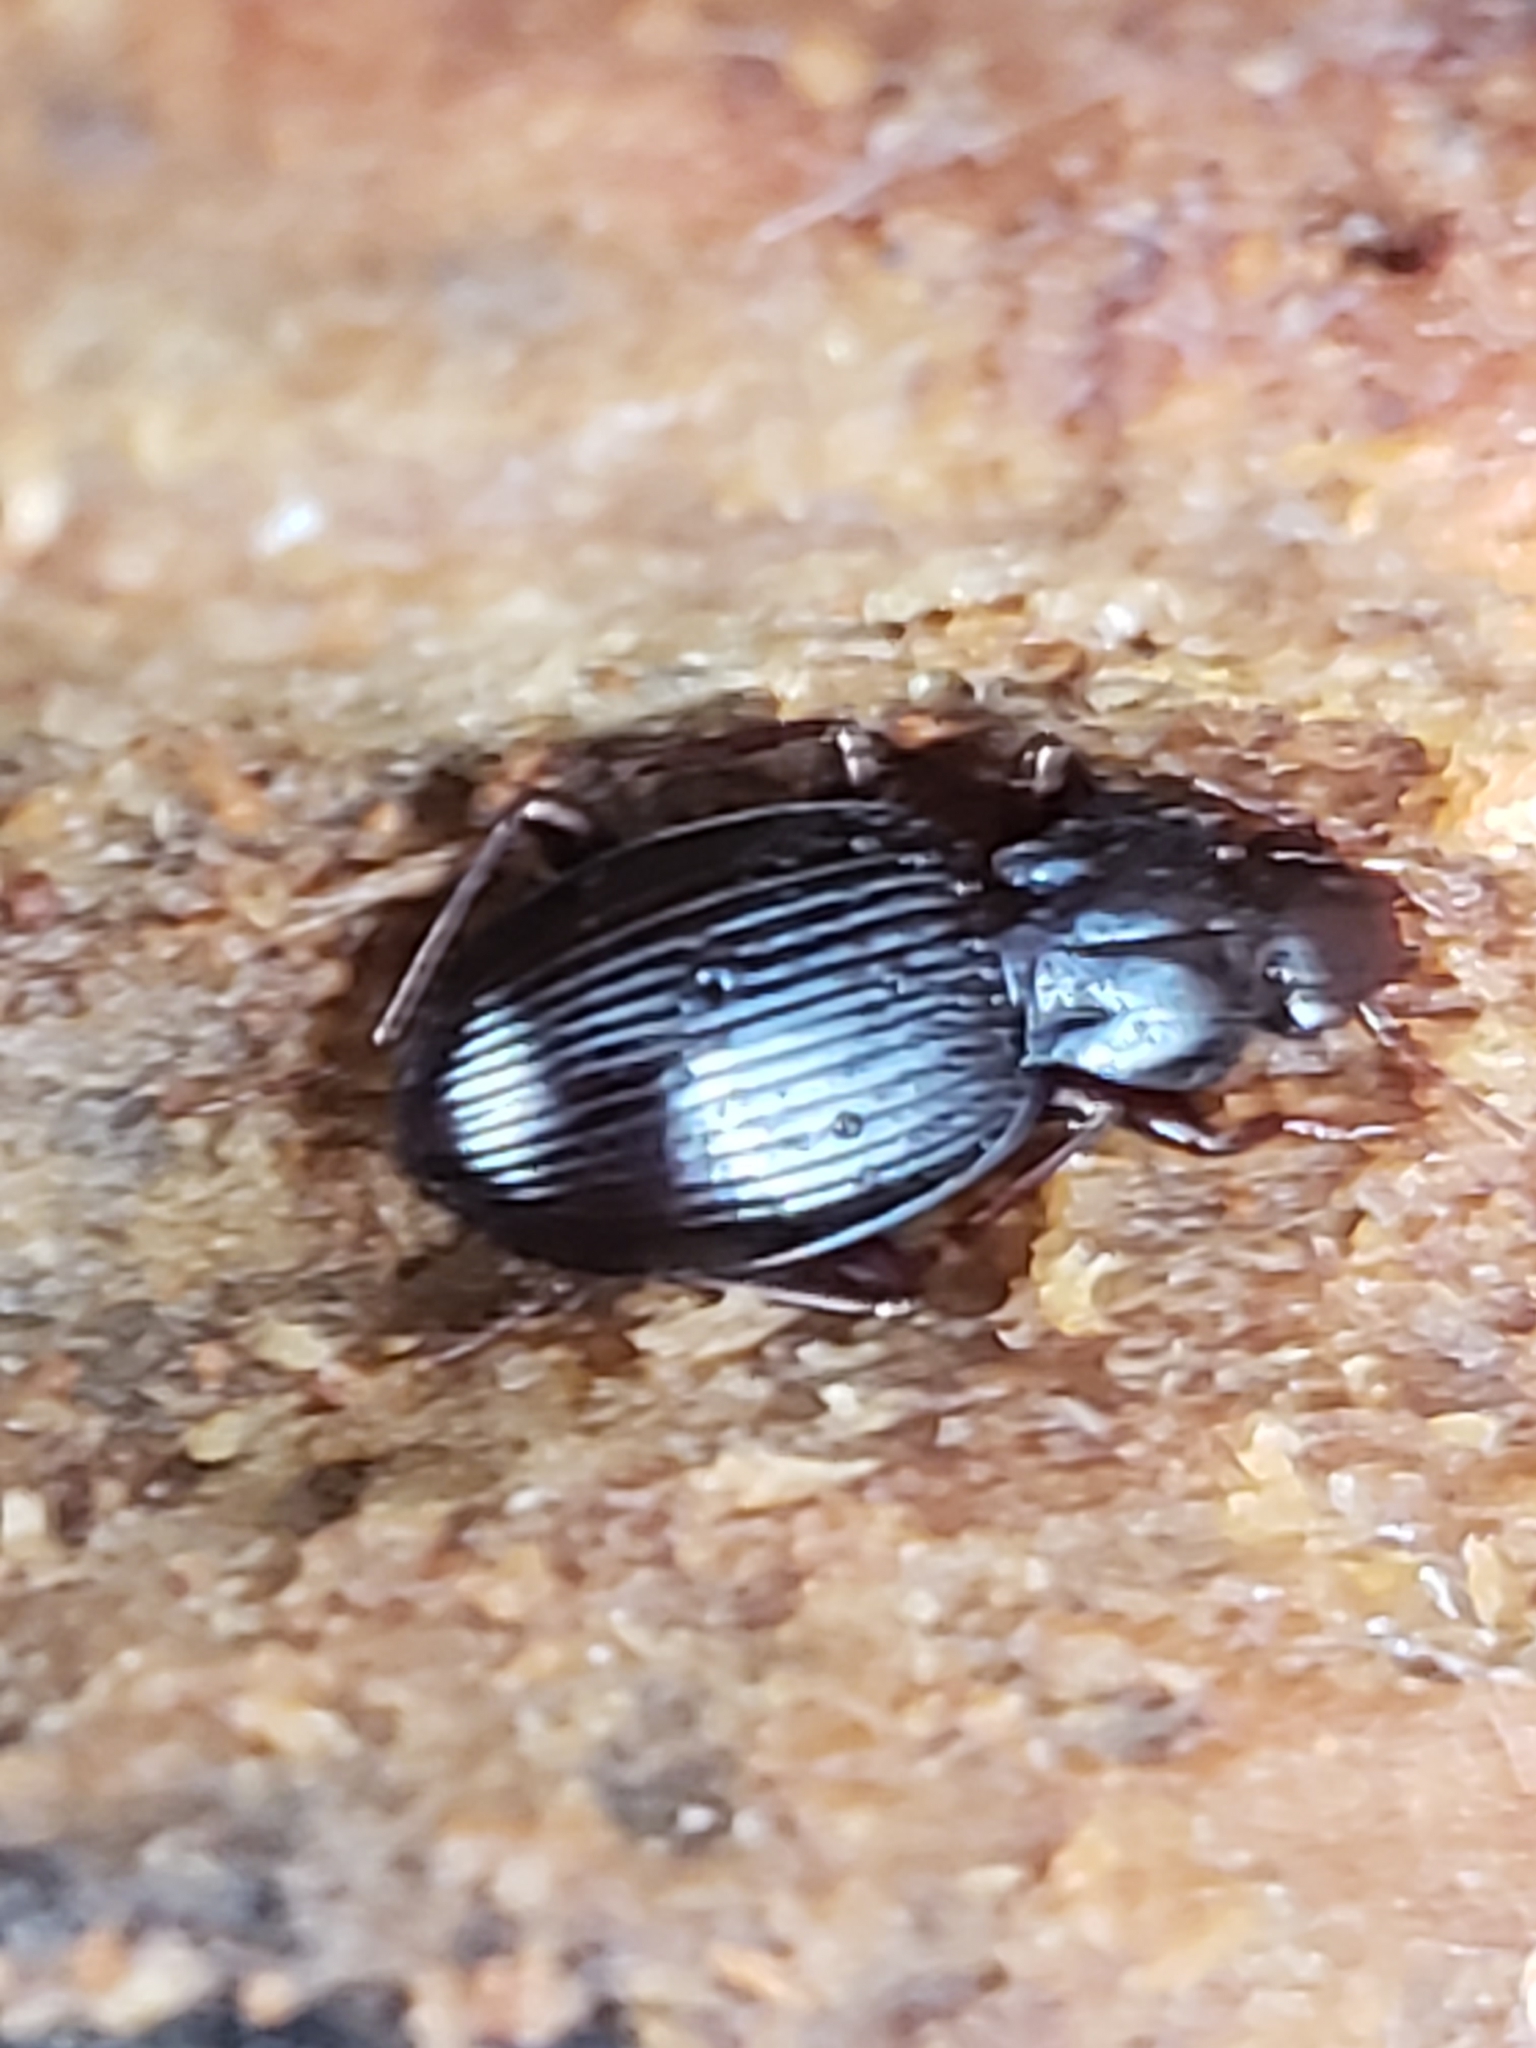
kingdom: Animalia
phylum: Arthropoda
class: Insecta
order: Coleoptera
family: Carabidae
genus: Gastrellarius
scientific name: Gastrellarius honestus
